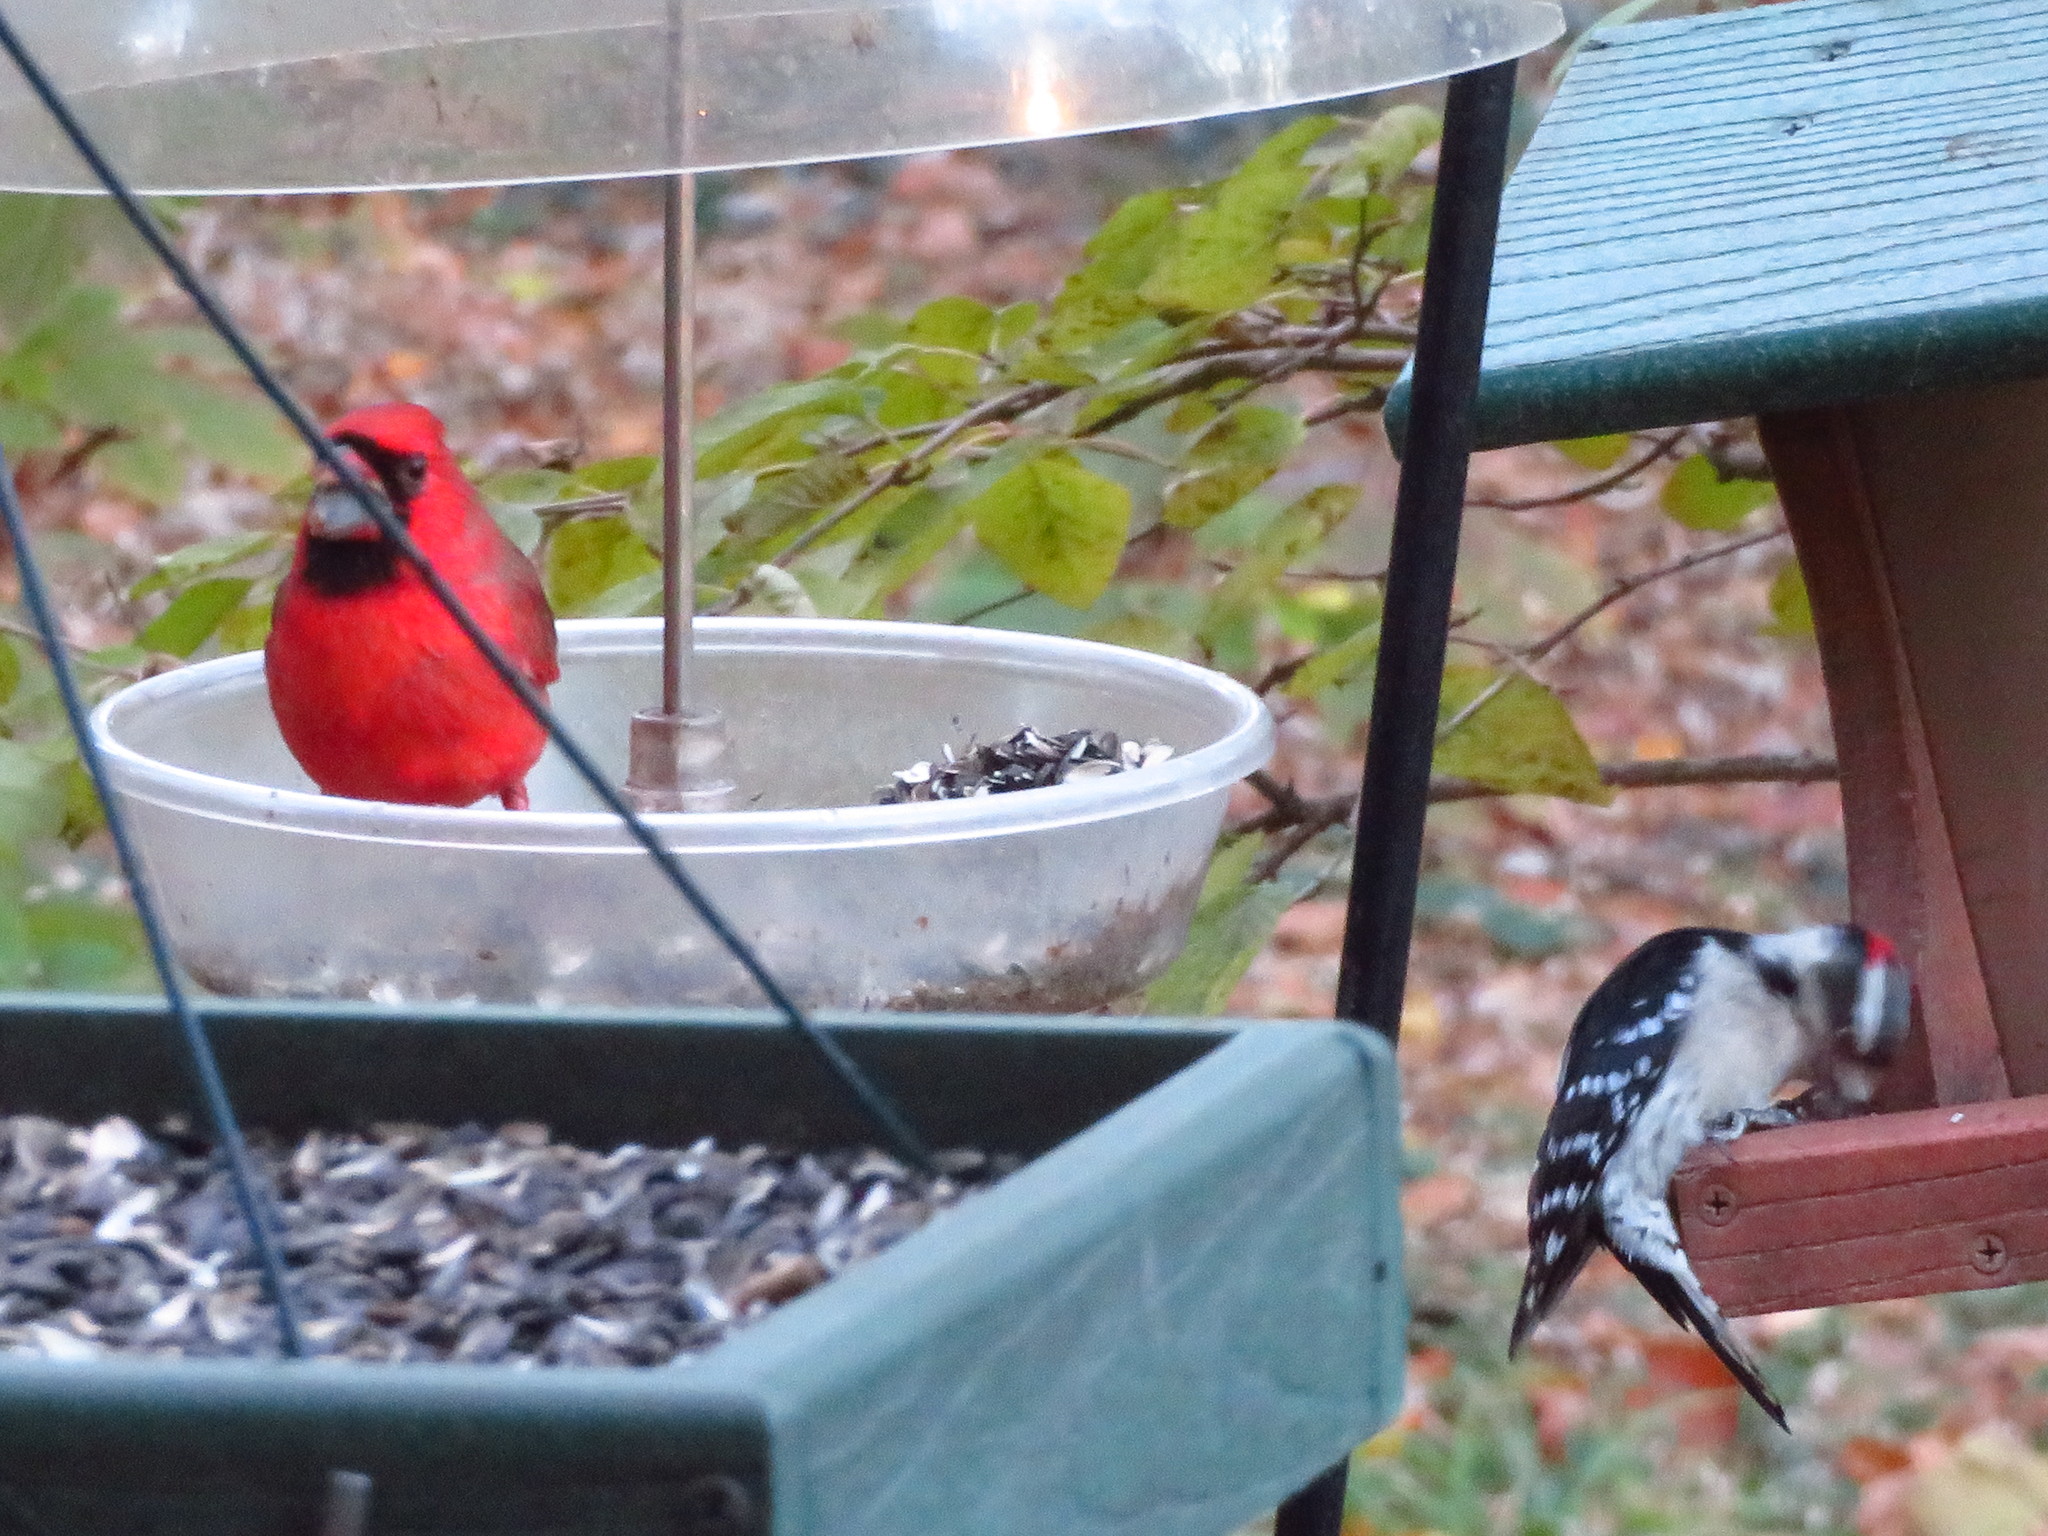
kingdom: Animalia
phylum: Chordata
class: Aves
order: Piciformes
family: Picidae
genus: Dryobates
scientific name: Dryobates pubescens
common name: Downy woodpecker
